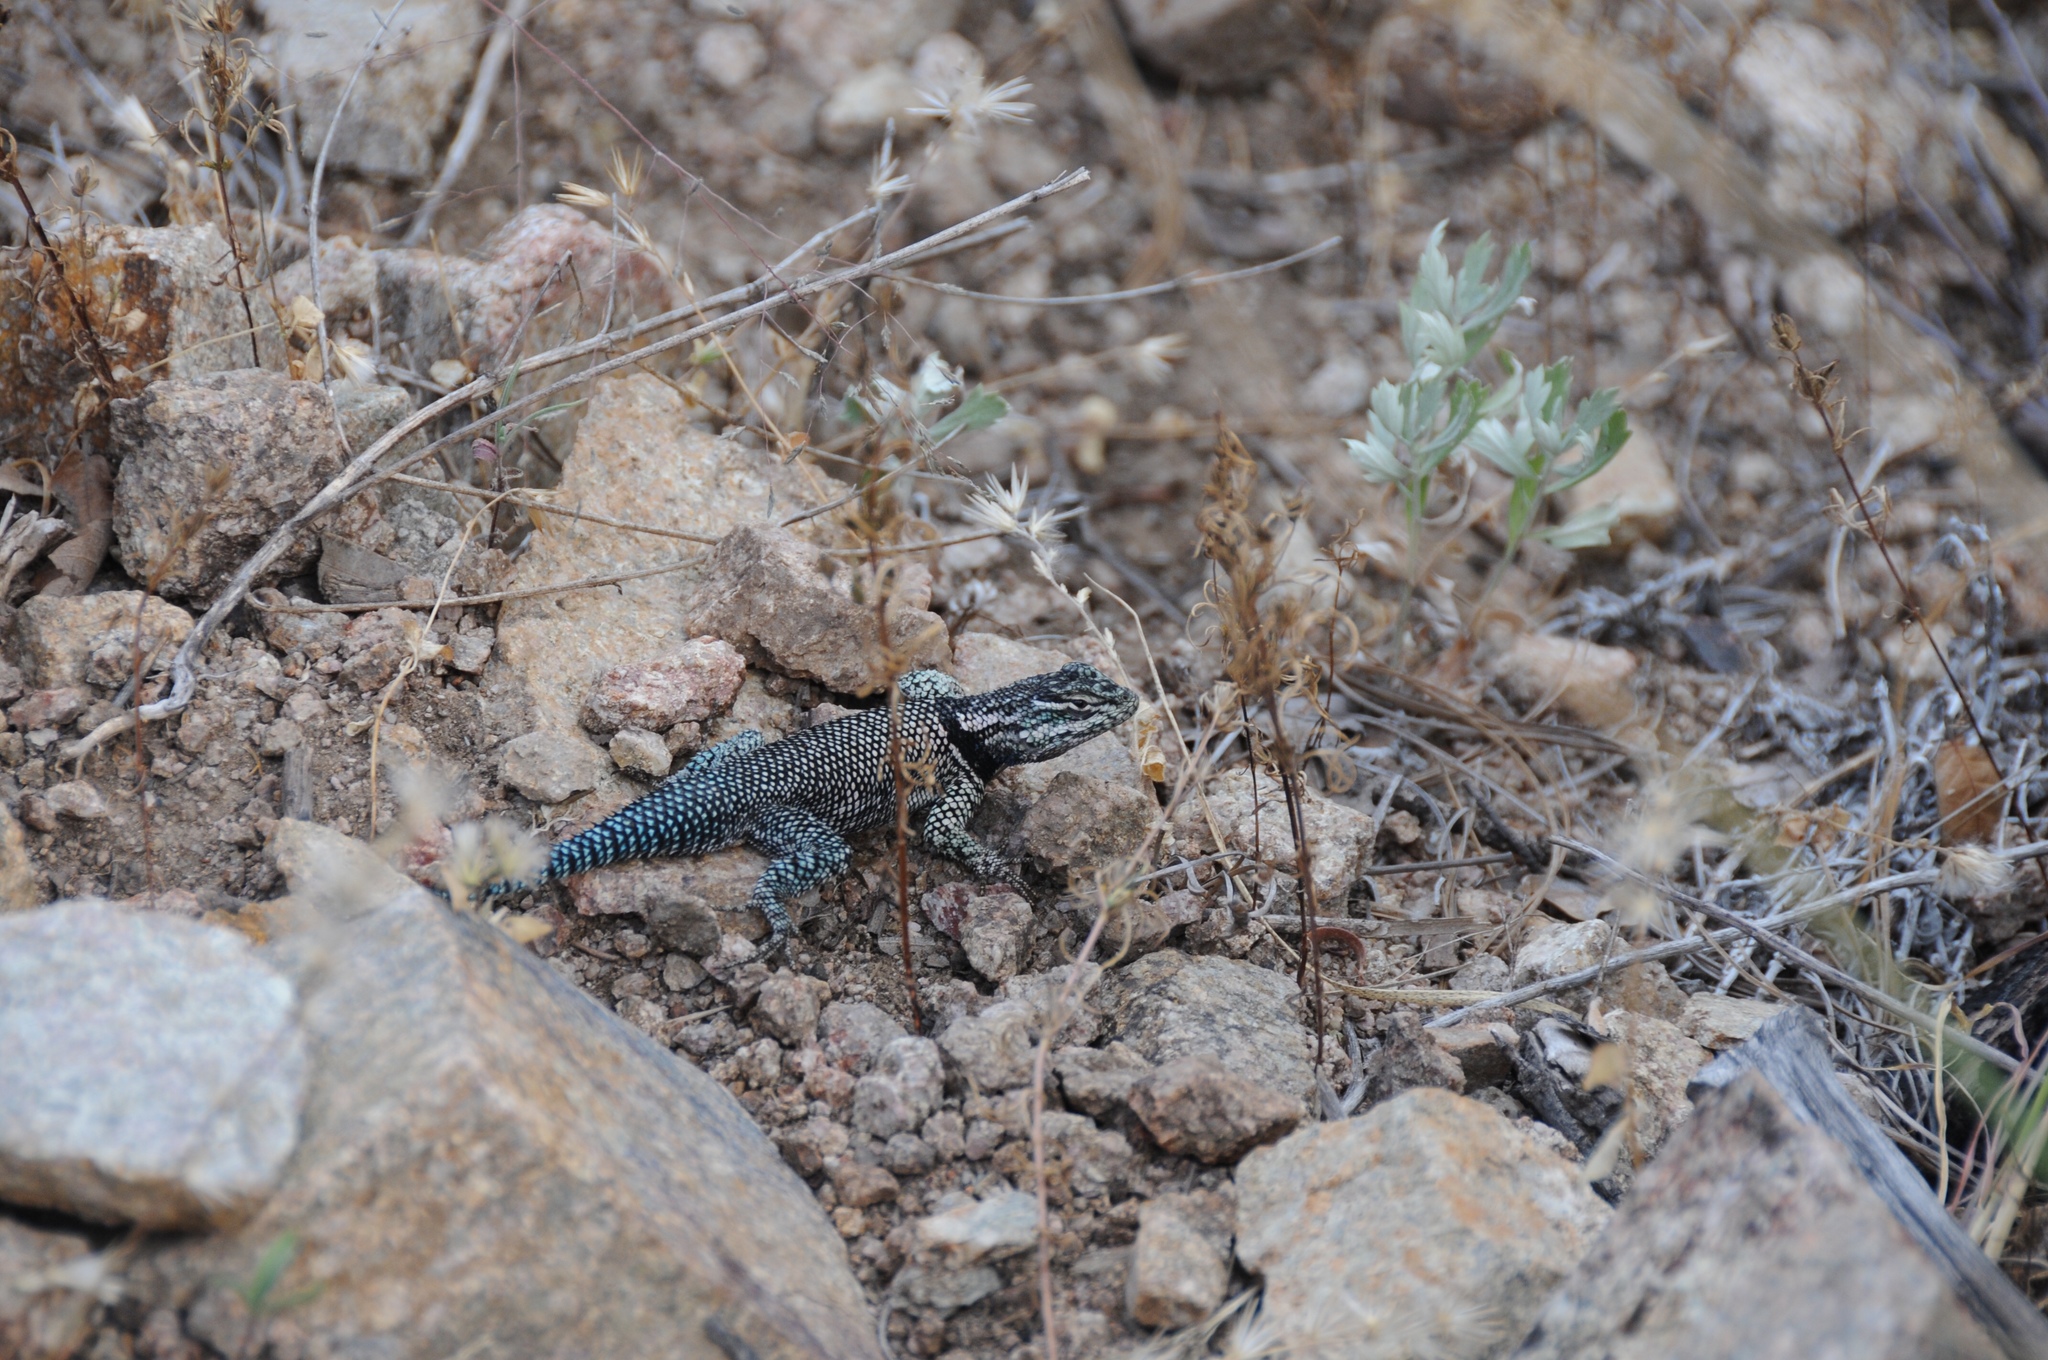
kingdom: Animalia
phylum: Chordata
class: Squamata
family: Phrynosomatidae
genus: Sceloporus
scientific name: Sceloporus jarrovii
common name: Yarrow's spiny lizard
